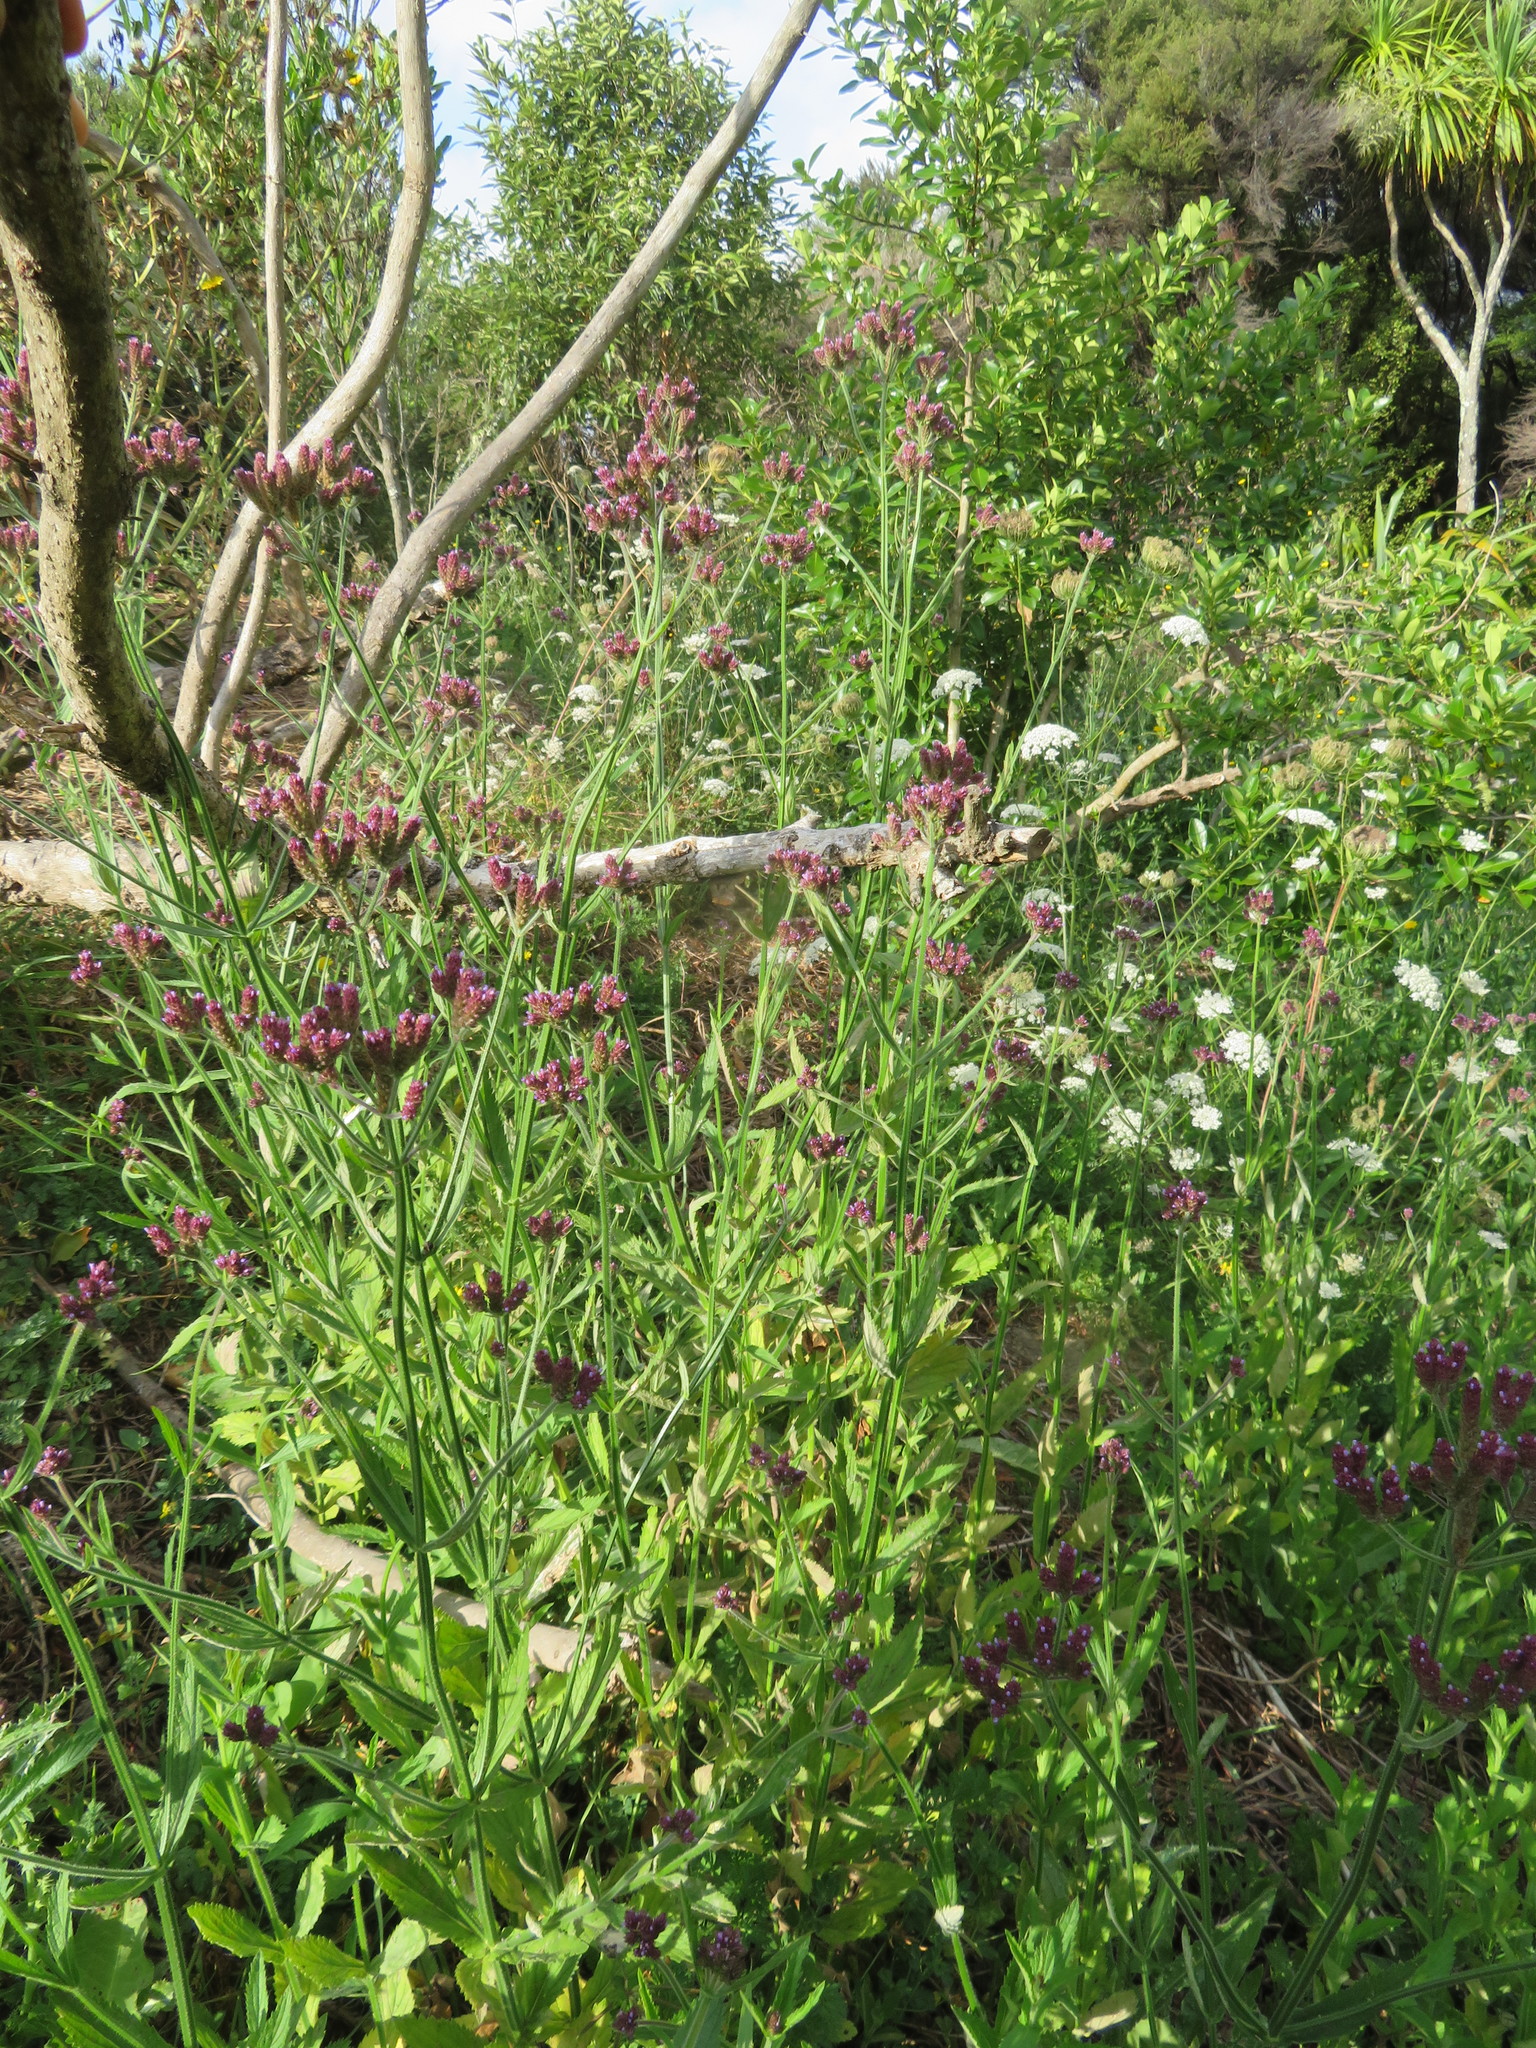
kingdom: Plantae
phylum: Tracheophyta
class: Magnoliopsida
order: Lamiales
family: Verbenaceae
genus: Verbena
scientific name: Verbena incompta
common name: Purpletop vervain
